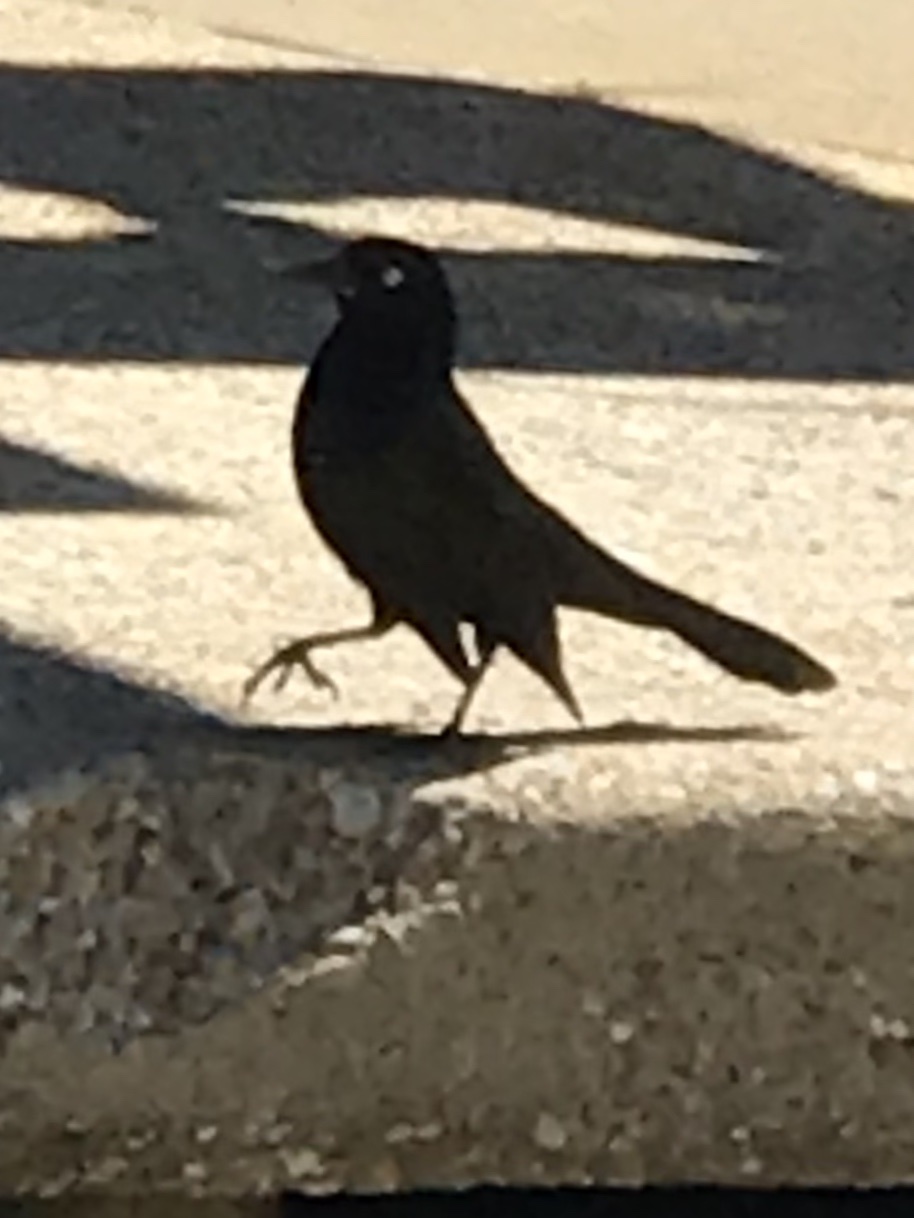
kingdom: Animalia
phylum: Chordata
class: Aves
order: Passeriformes
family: Icteridae
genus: Quiscalus
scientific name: Quiscalus quiscula
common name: Common grackle
